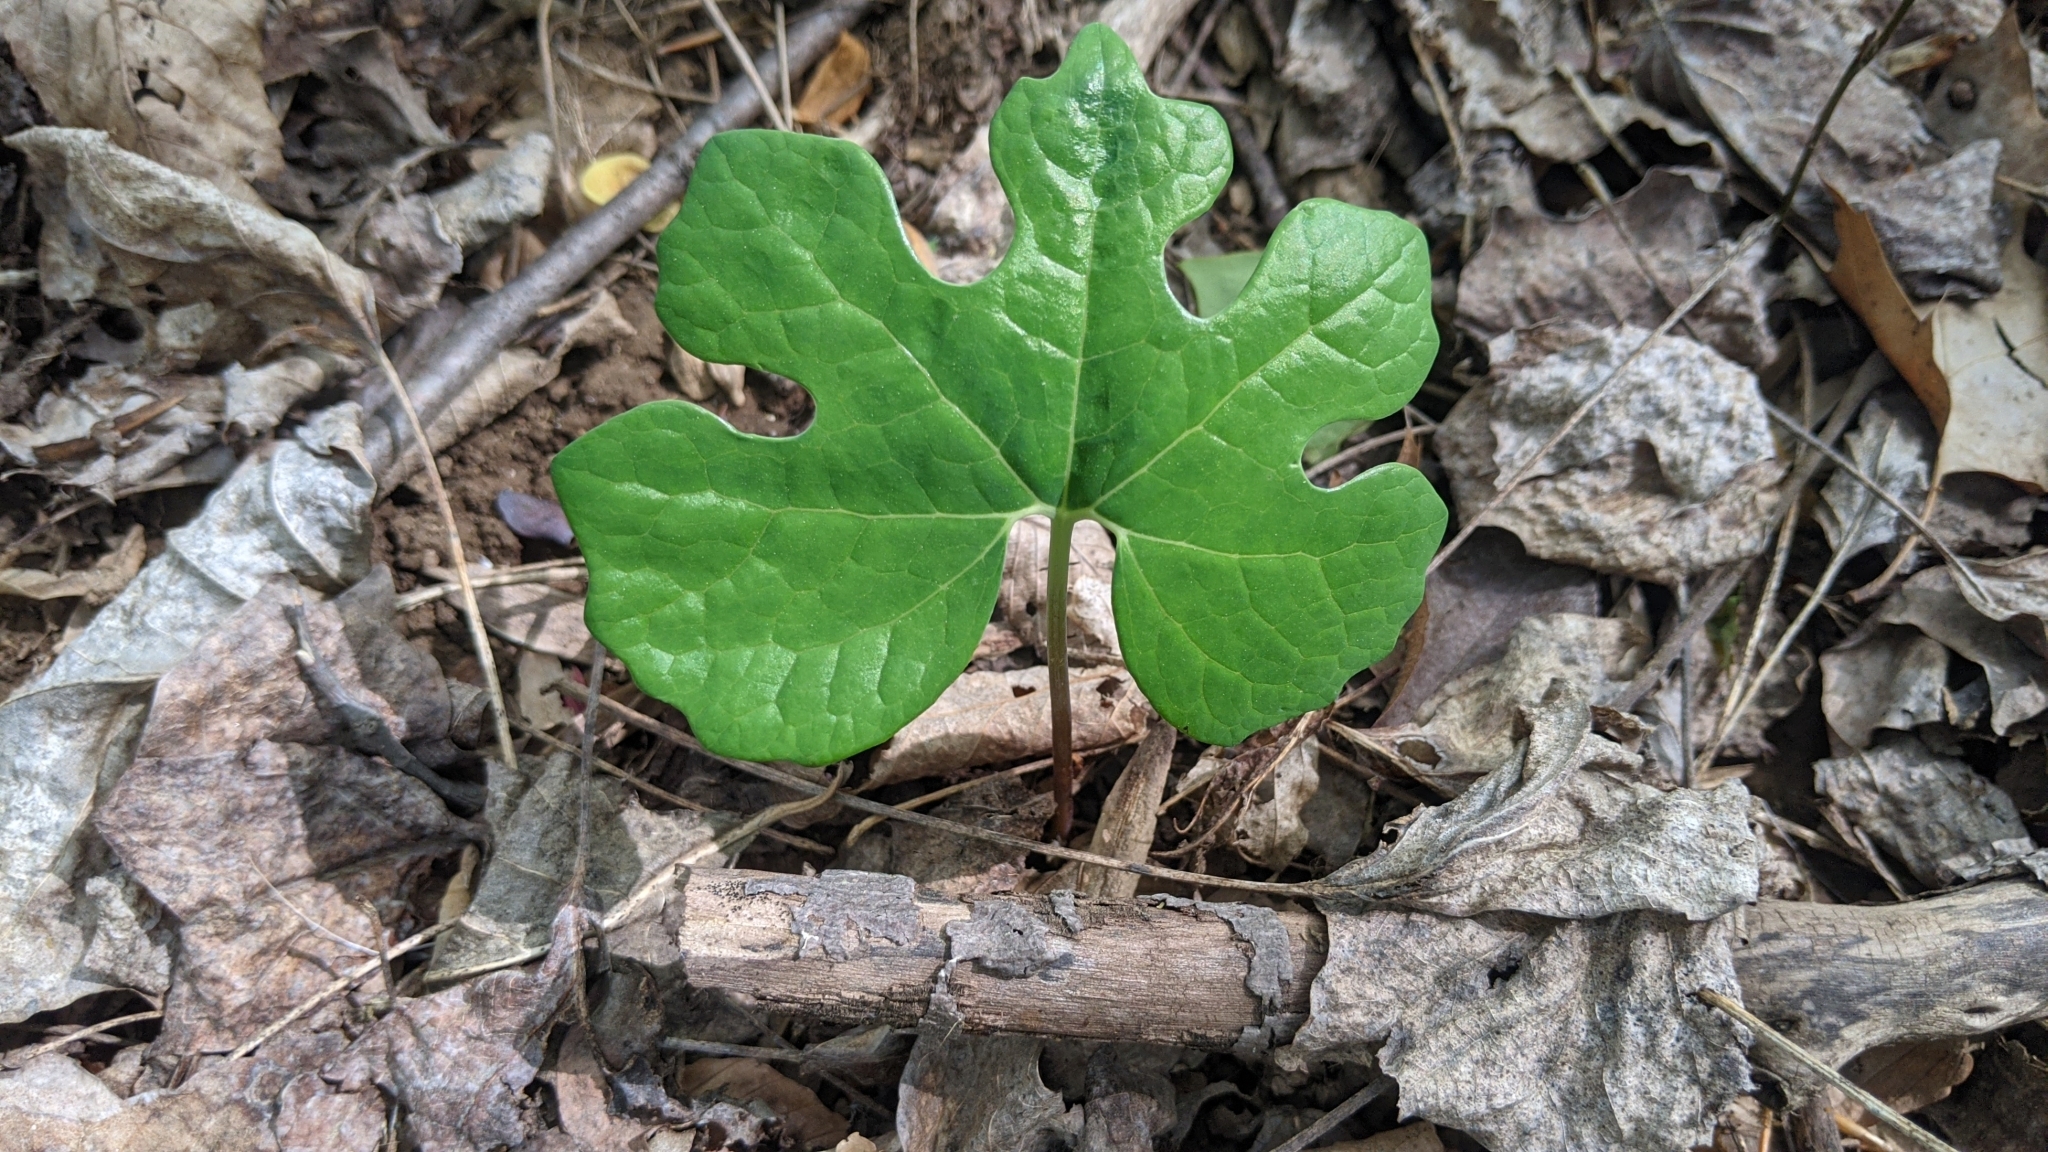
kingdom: Plantae
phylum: Tracheophyta
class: Magnoliopsida
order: Ranunculales
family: Papaveraceae
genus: Sanguinaria
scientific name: Sanguinaria canadensis
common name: Bloodroot
